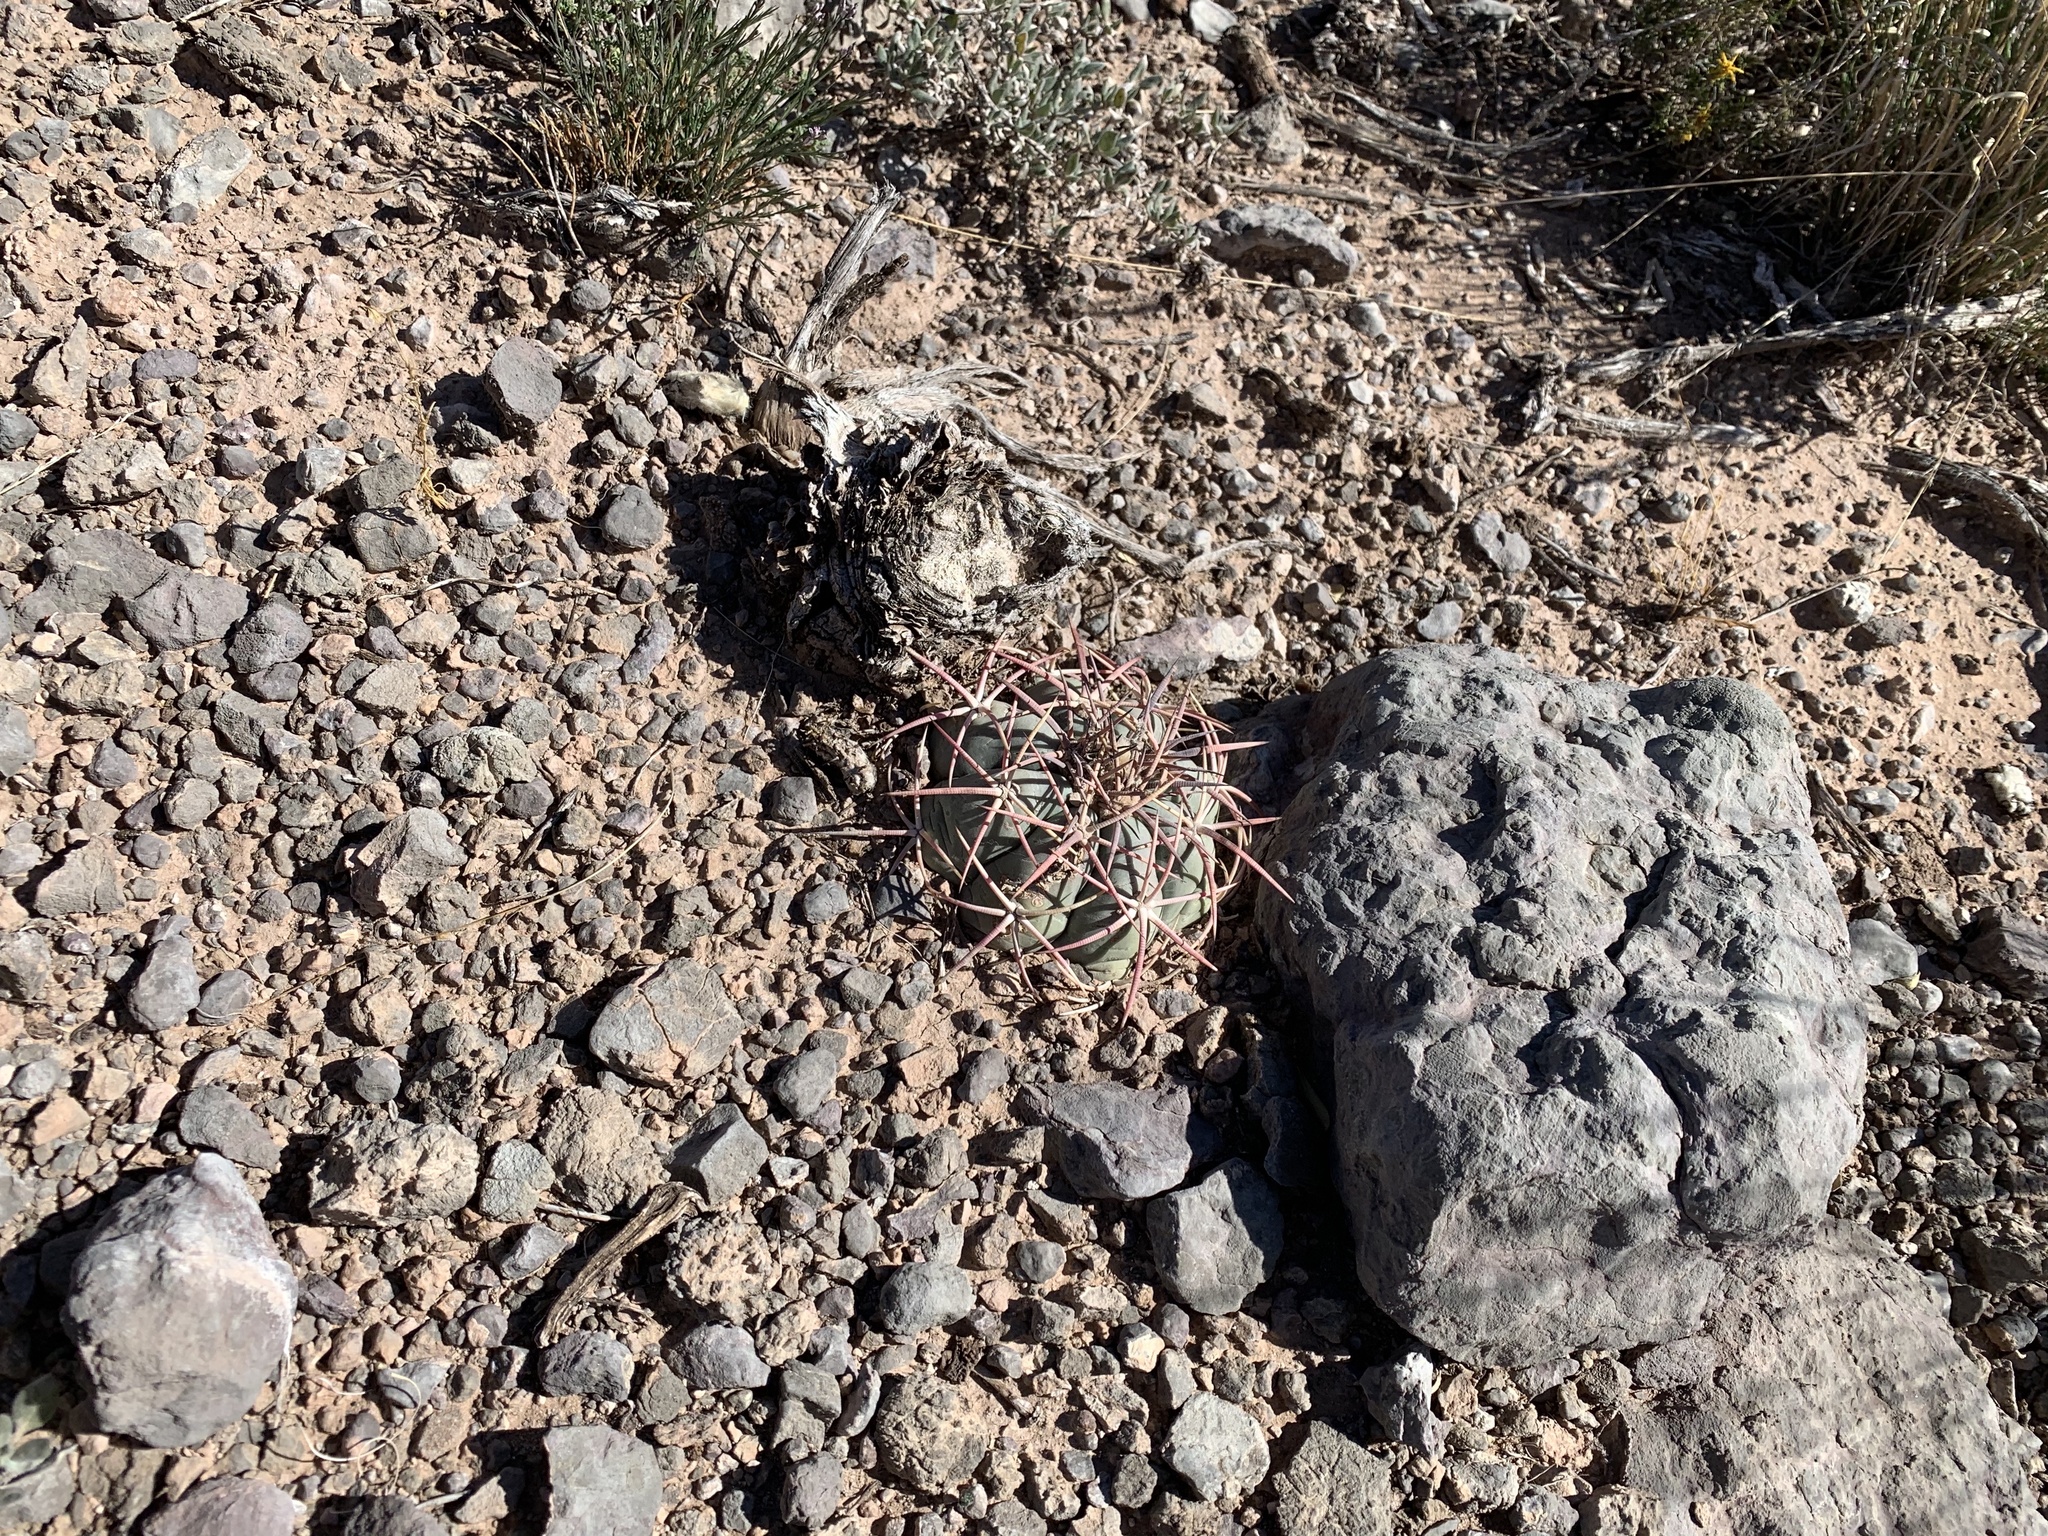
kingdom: Plantae
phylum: Tracheophyta
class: Magnoliopsida
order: Caryophyllales
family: Cactaceae
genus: Echinocactus
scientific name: Echinocactus horizonthalonius
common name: Devilshead
